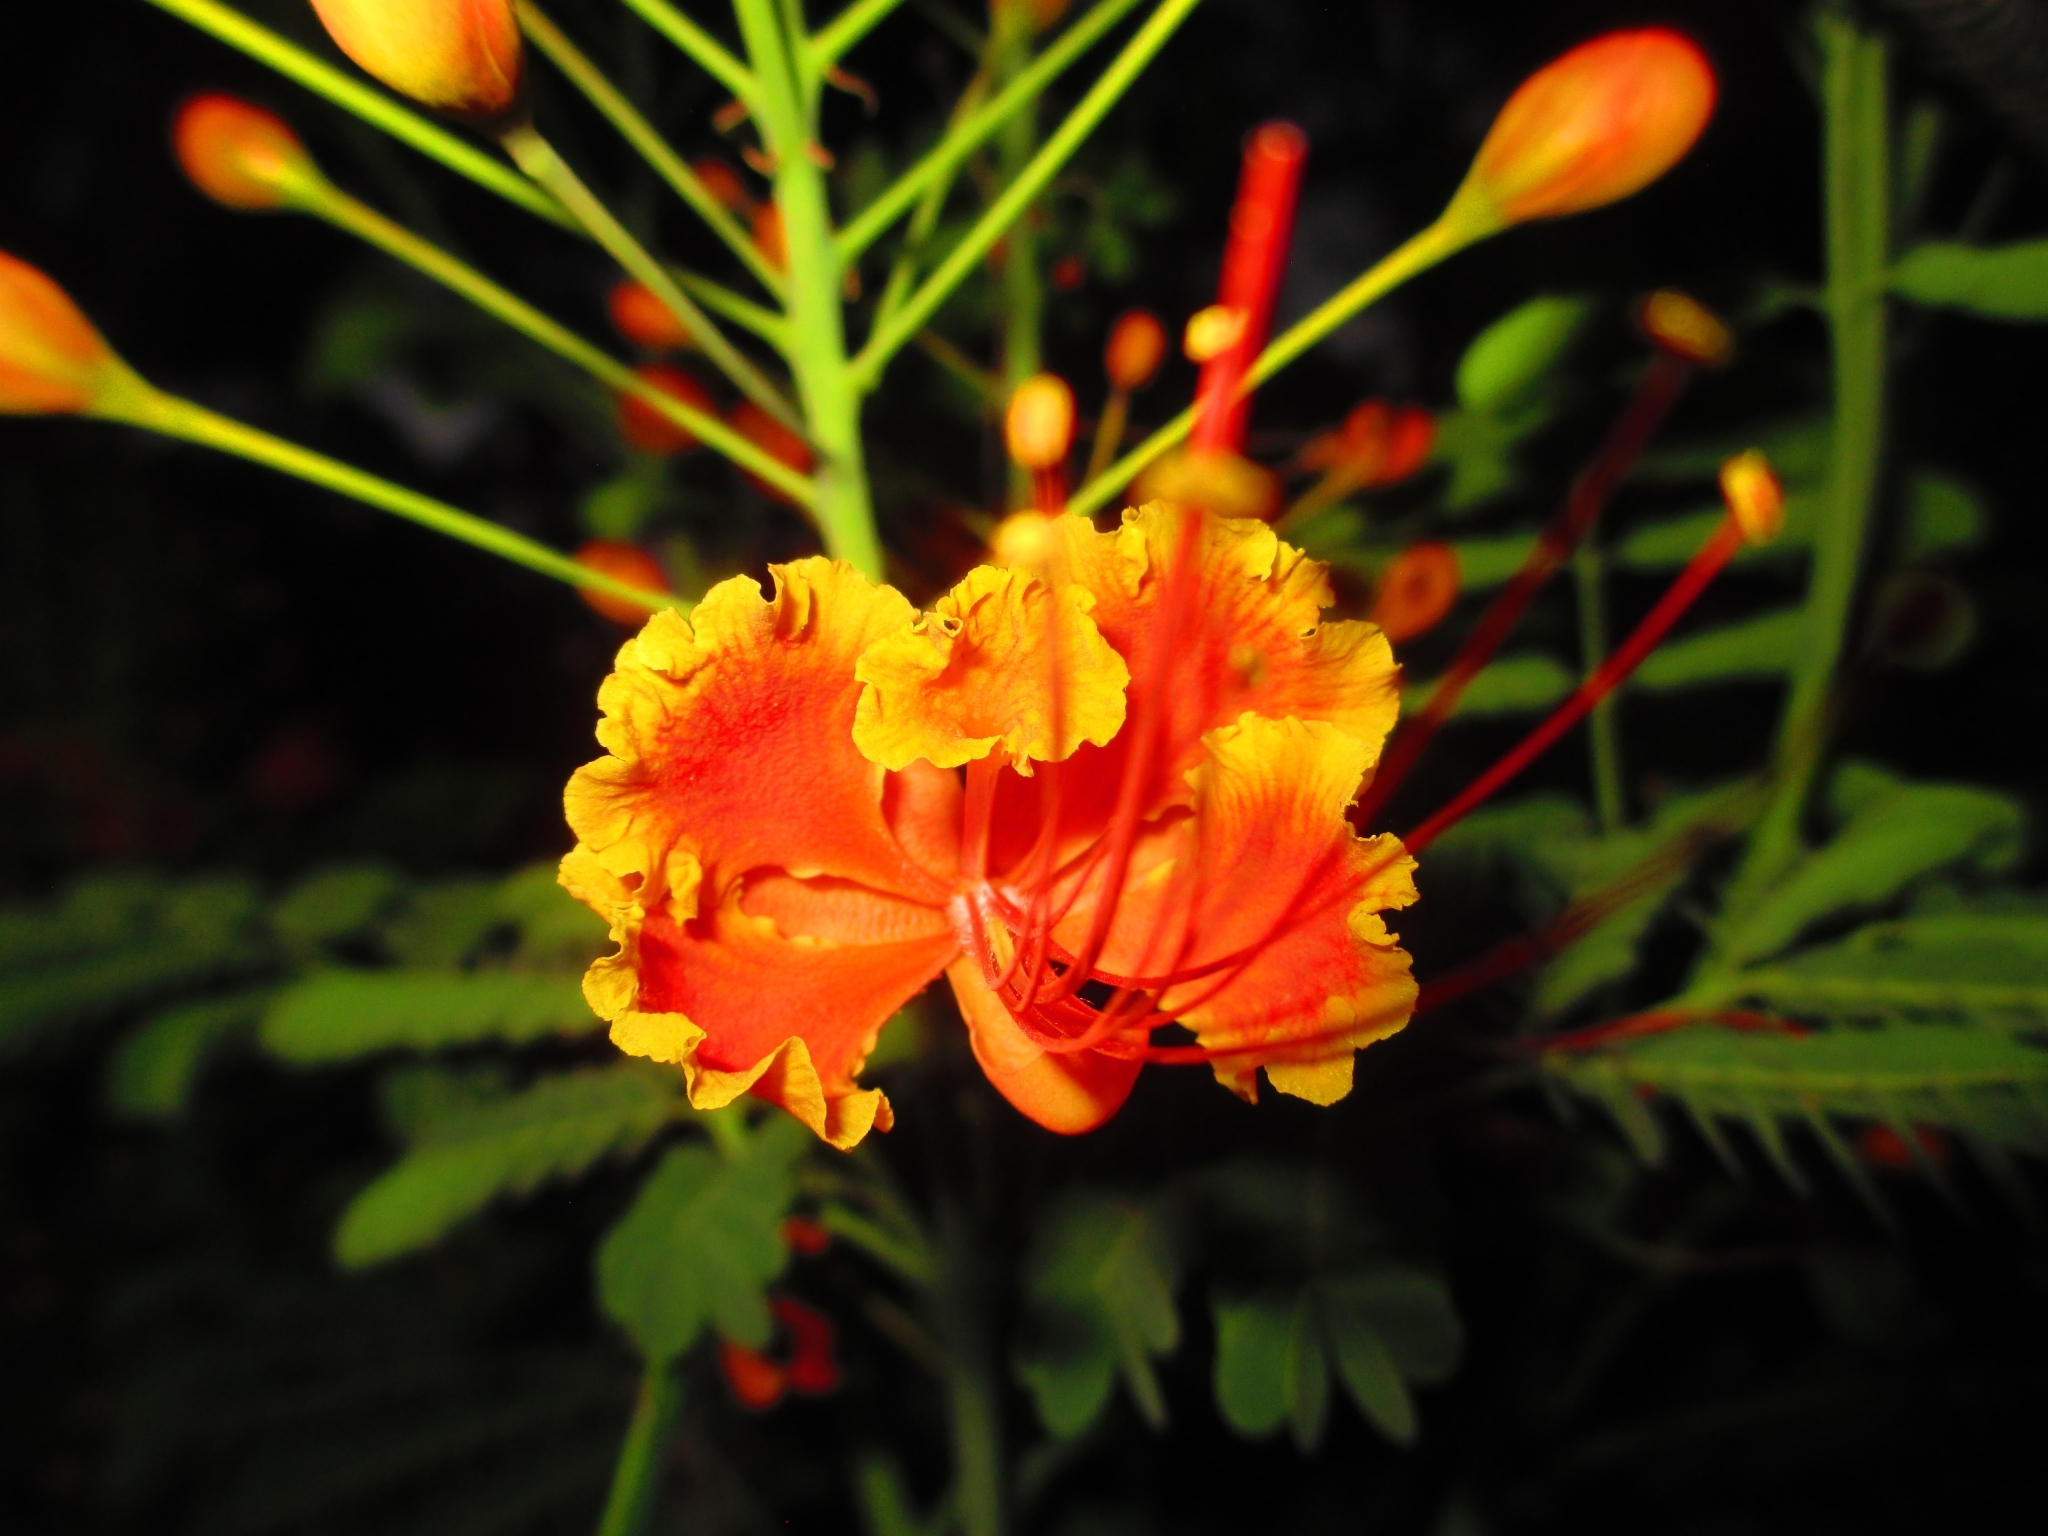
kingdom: Plantae
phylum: Tracheophyta
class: Magnoliopsida
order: Fabales
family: Fabaceae
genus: Caesalpinia
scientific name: Caesalpinia pulcherrima
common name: Pride-of-barbados
